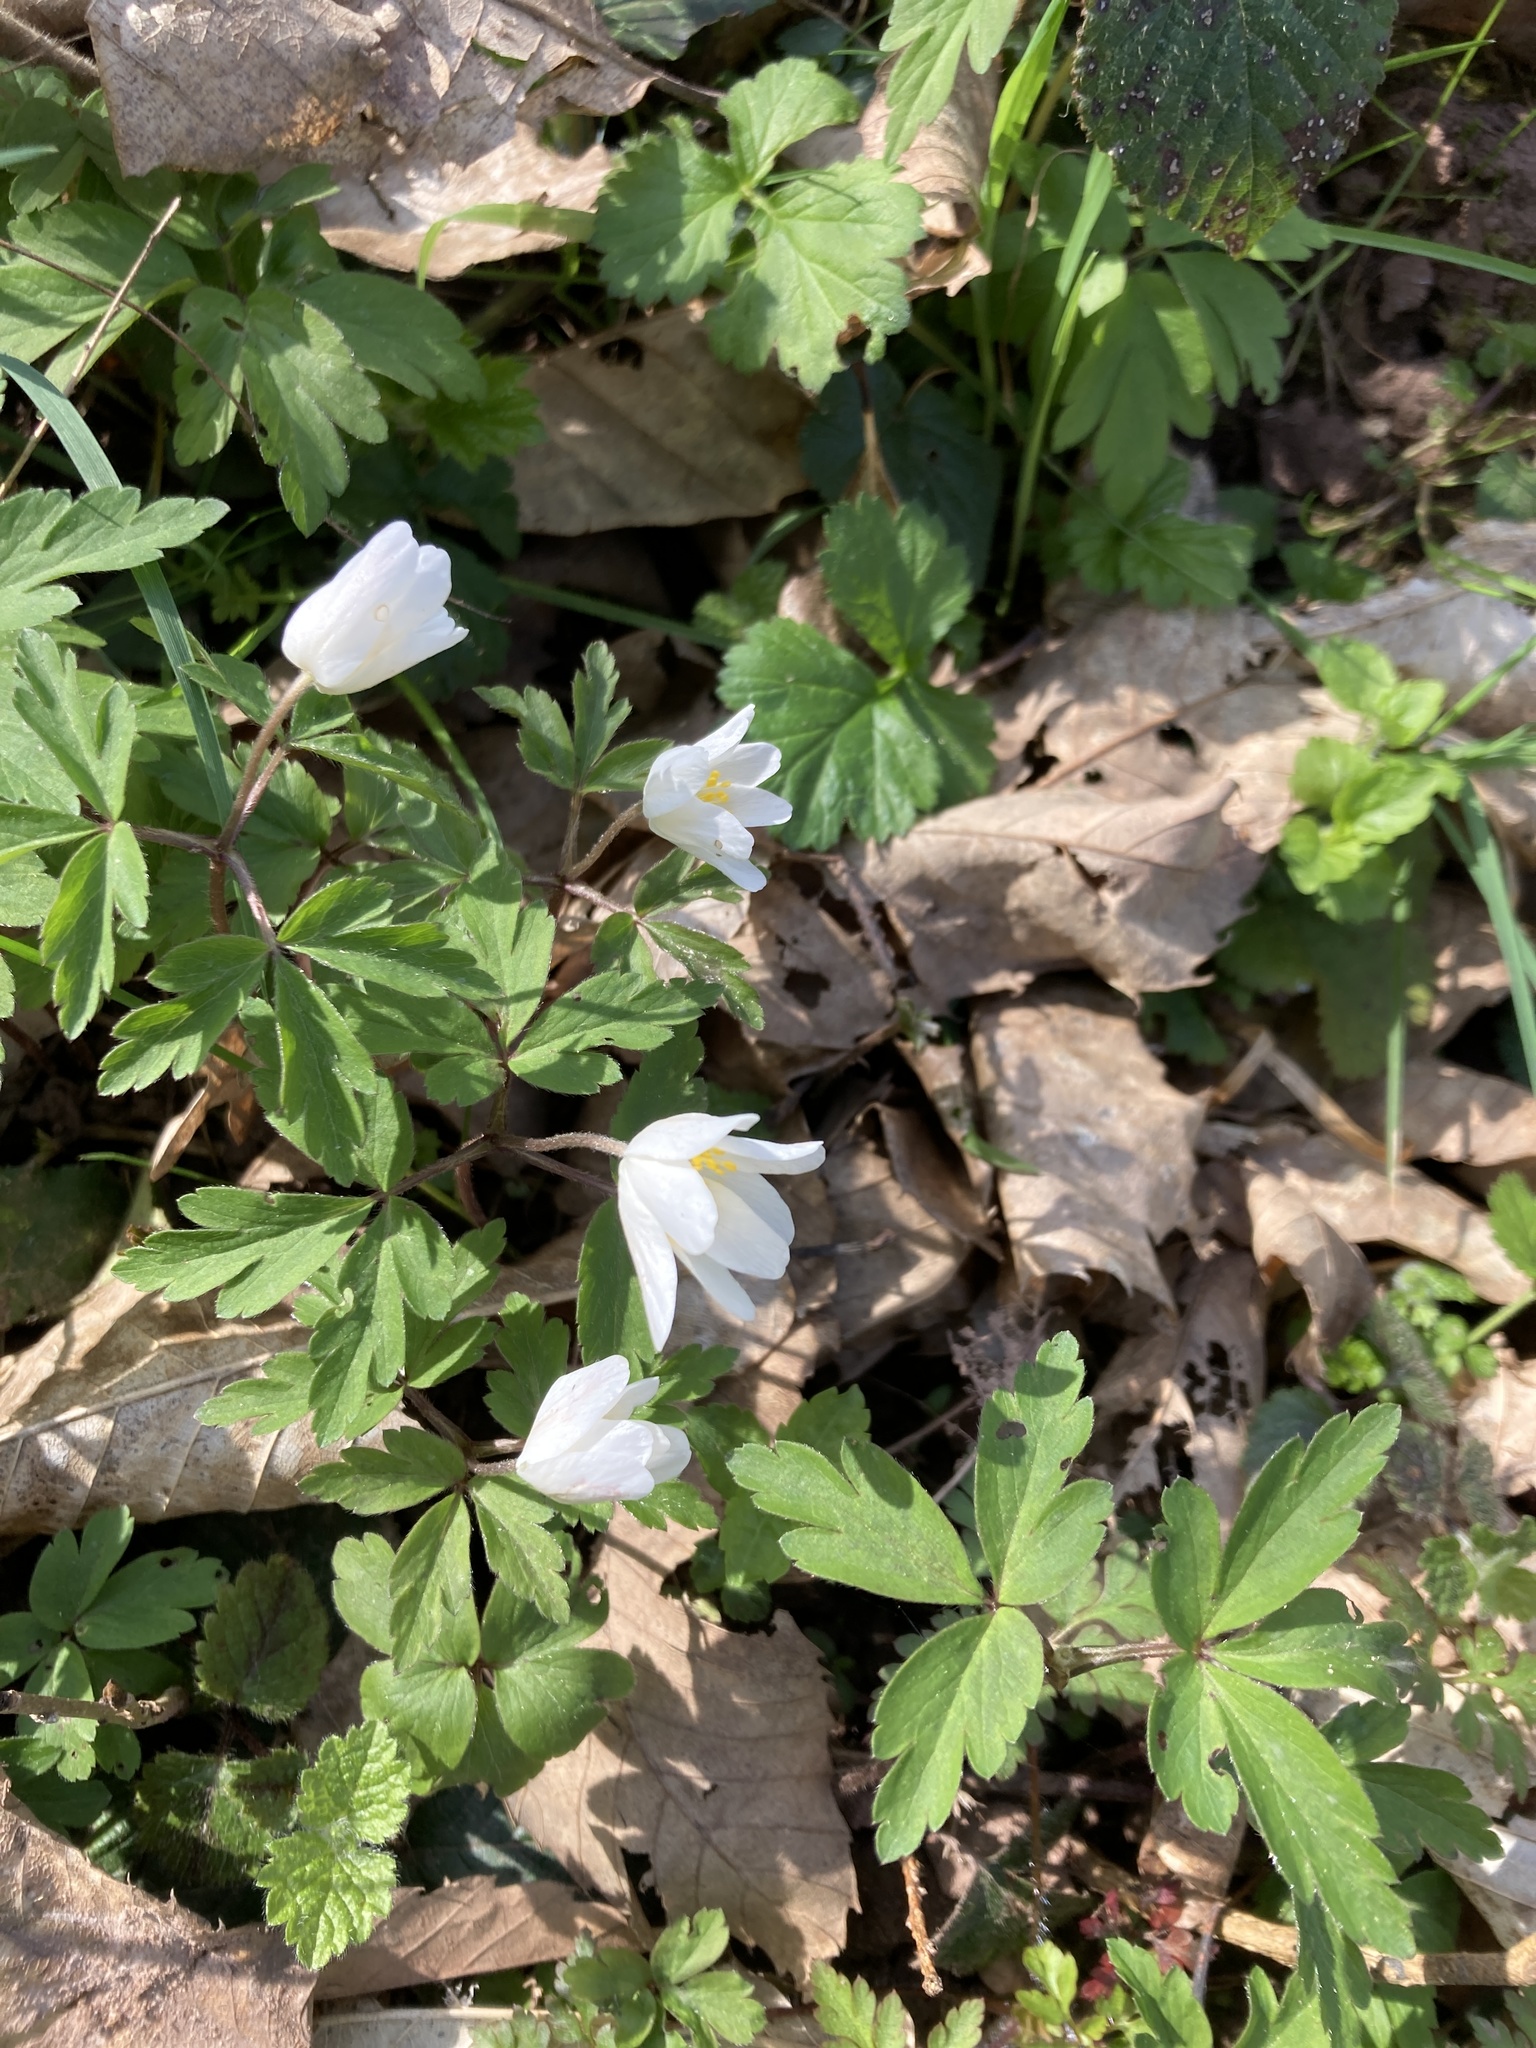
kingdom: Plantae
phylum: Tracheophyta
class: Magnoliopsida
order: Ranunculales
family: Ranunculaceae
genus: Anemone
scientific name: Anemone nemorosa
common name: Wood anemone
